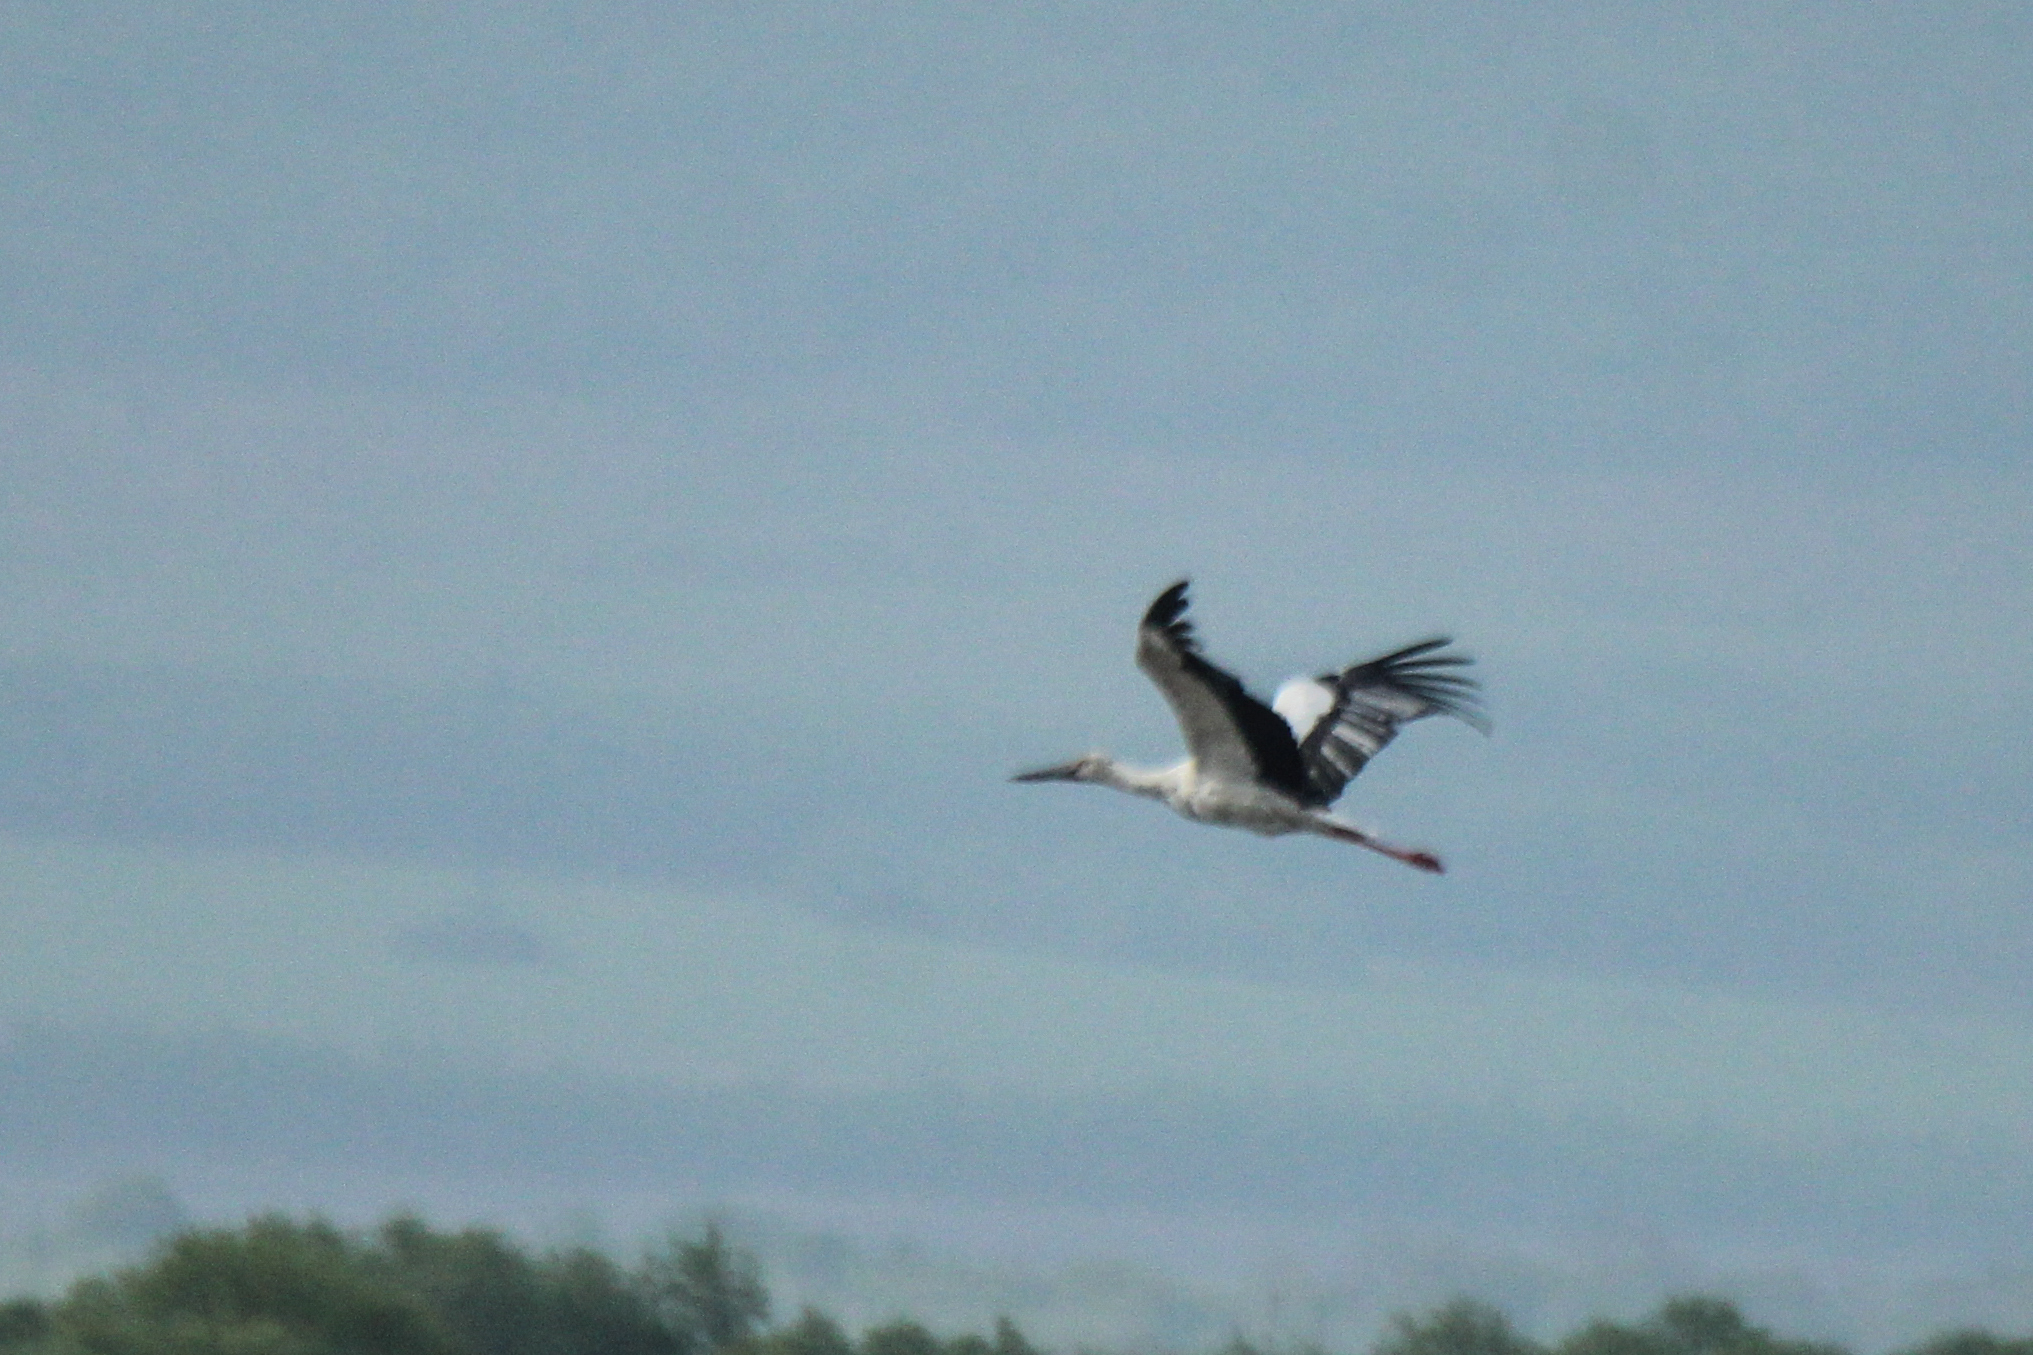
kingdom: Animalia
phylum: Chordata
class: Aves
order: Ciconiiformes
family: Ciconiidae
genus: Ciconia
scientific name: Ciconia boyciana
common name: Oriental stork
